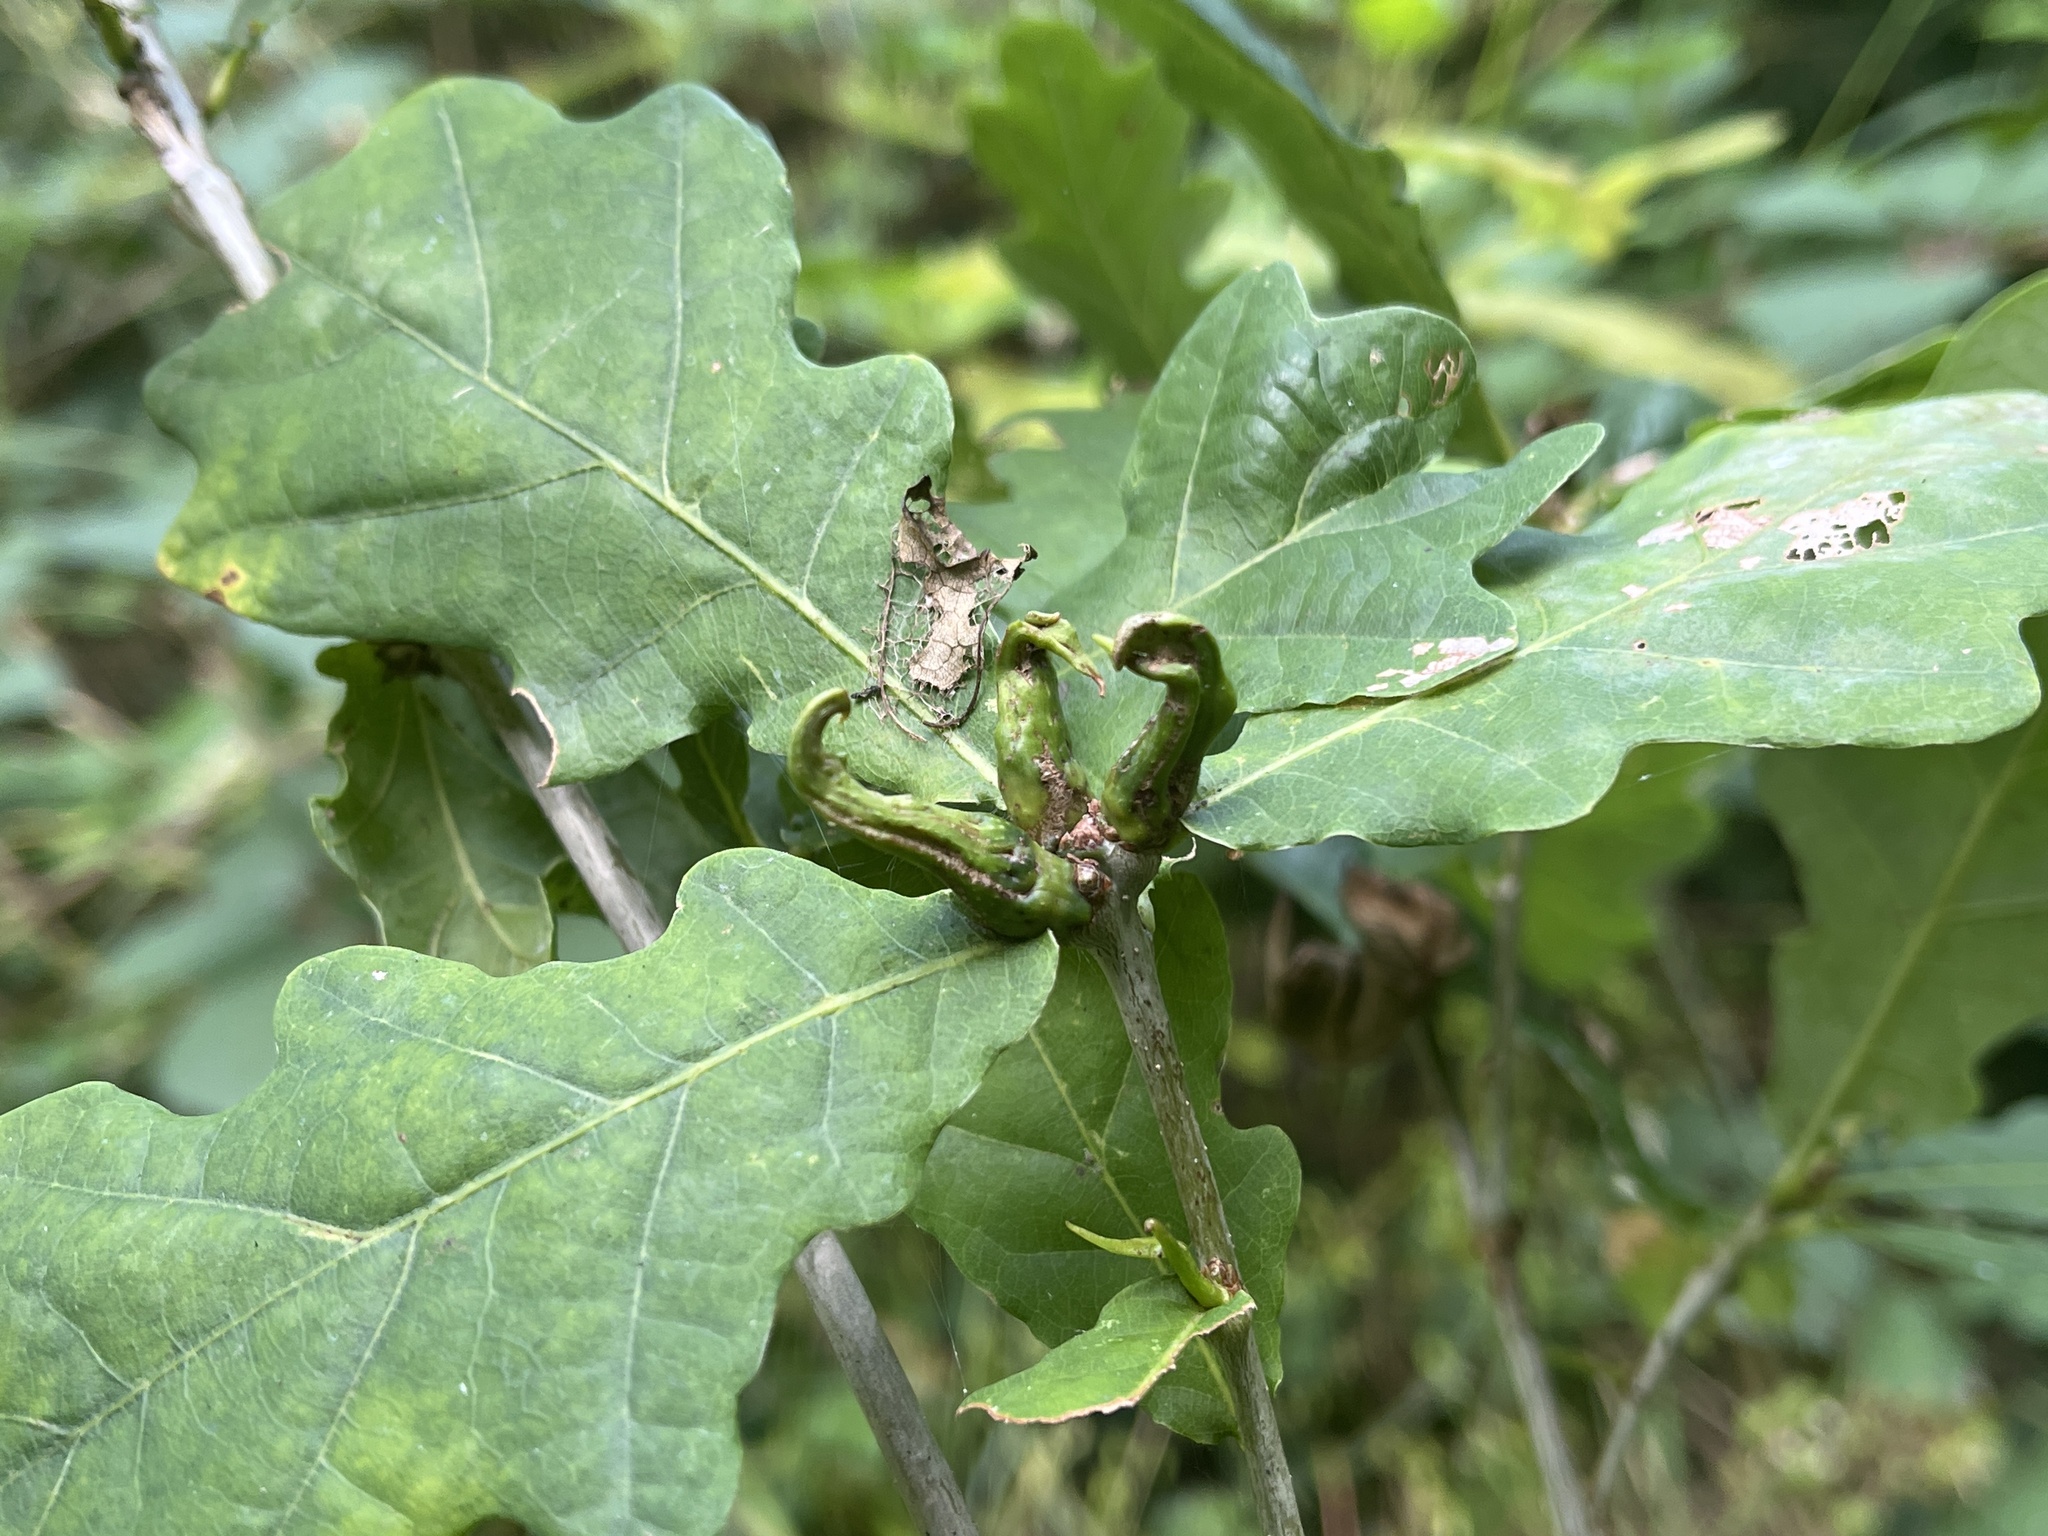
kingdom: Animalia
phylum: Arthropoda
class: Insecta
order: Hymenoptera
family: Cynipidae
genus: Andricus
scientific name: Andricus aries
